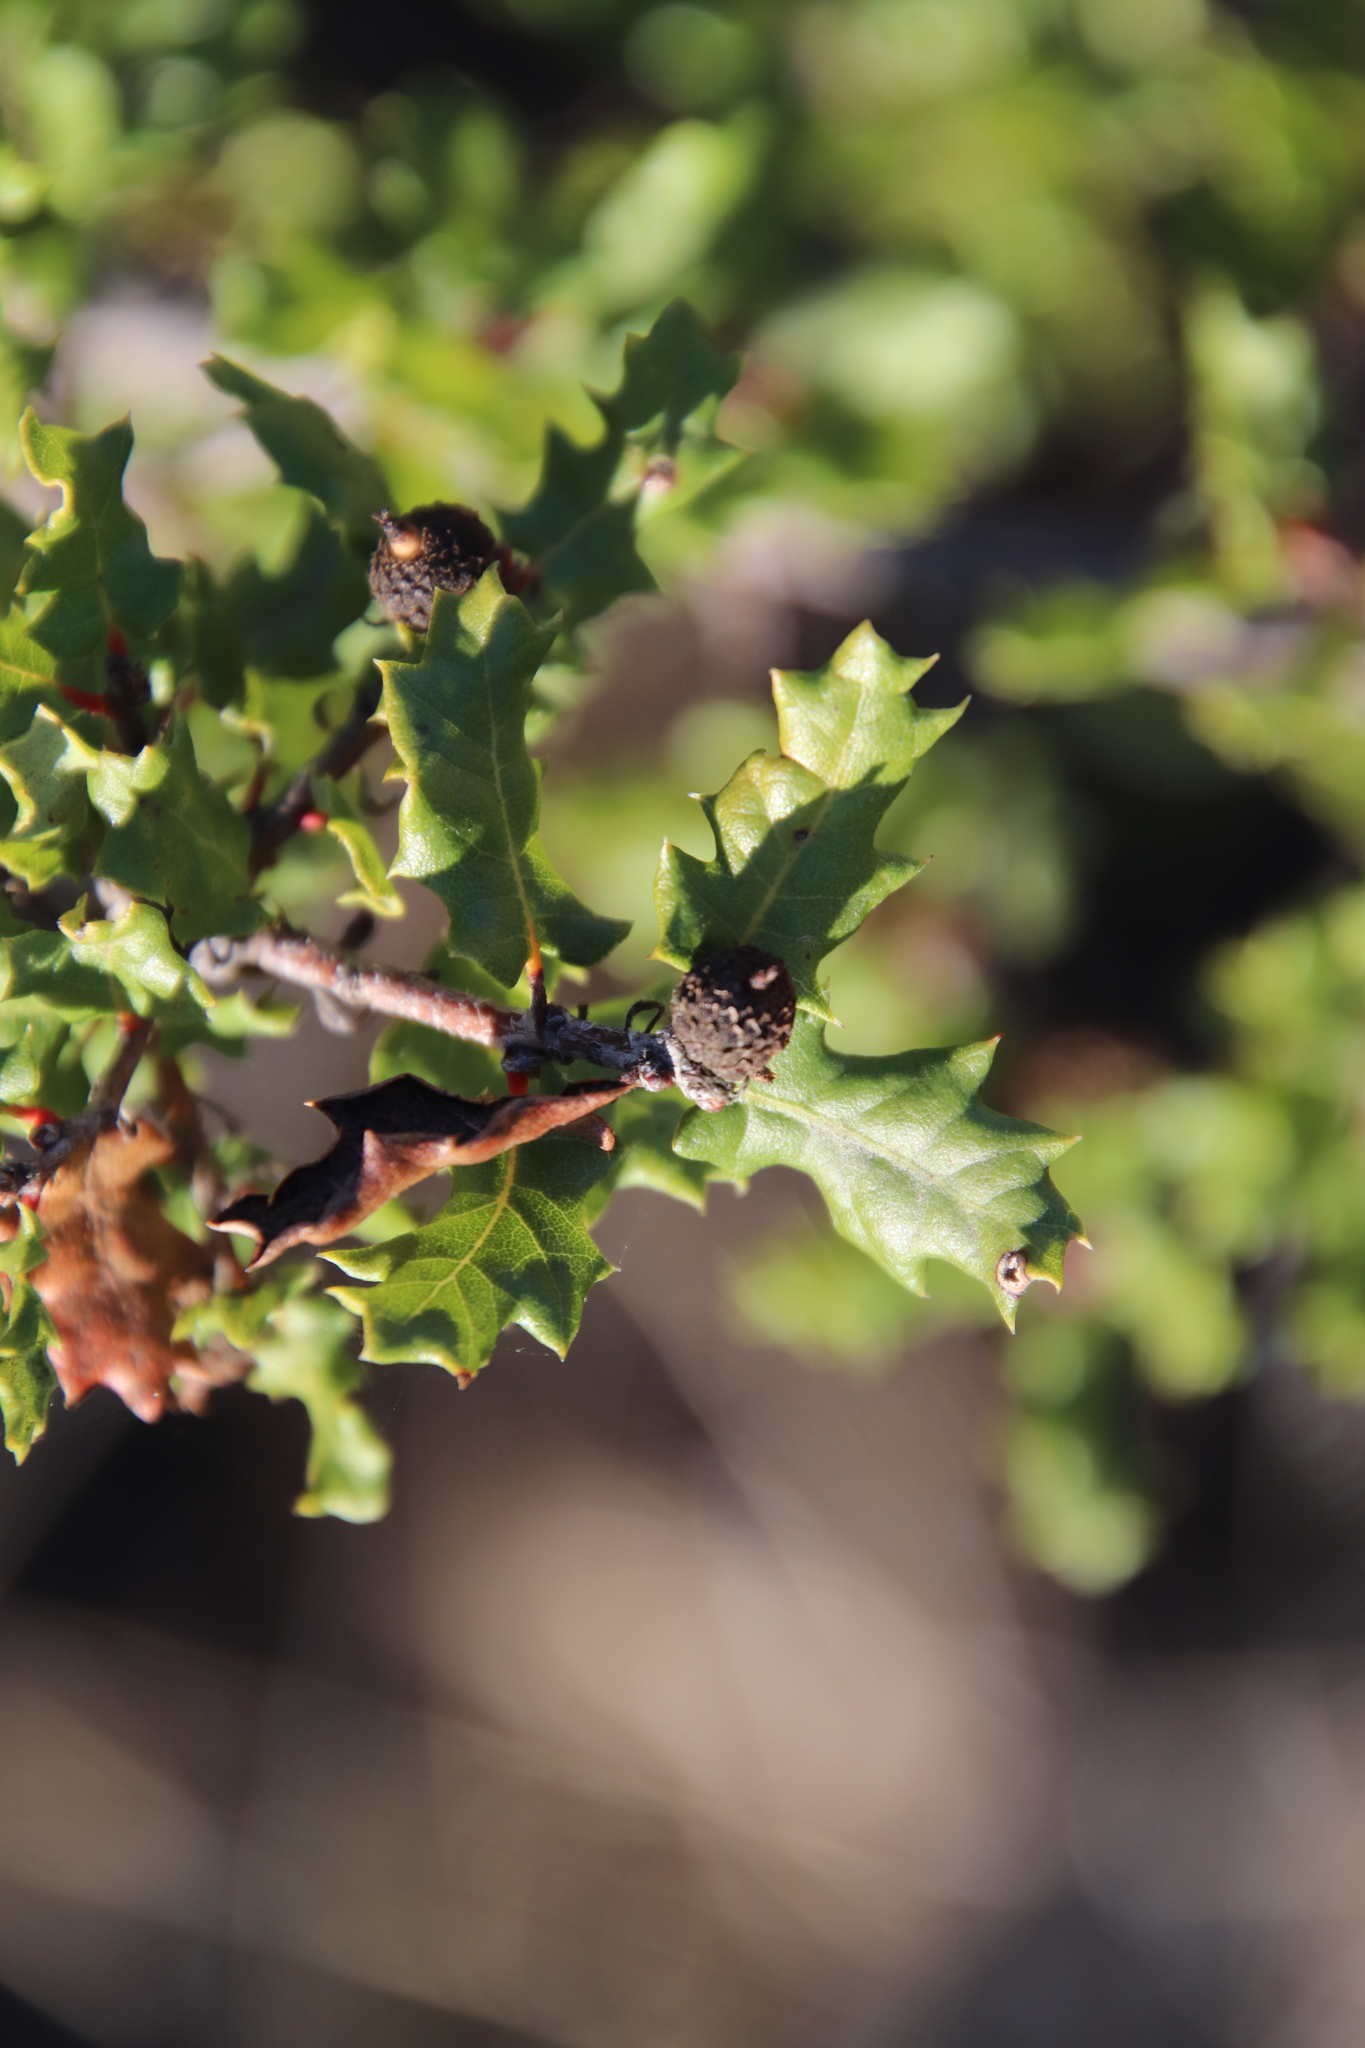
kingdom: Plantae
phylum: Tracheophyta
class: Magnoliopsida
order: Fagales
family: Fagaceae
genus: Quercus
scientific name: Quercus berberidifolia
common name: California scrub oak
